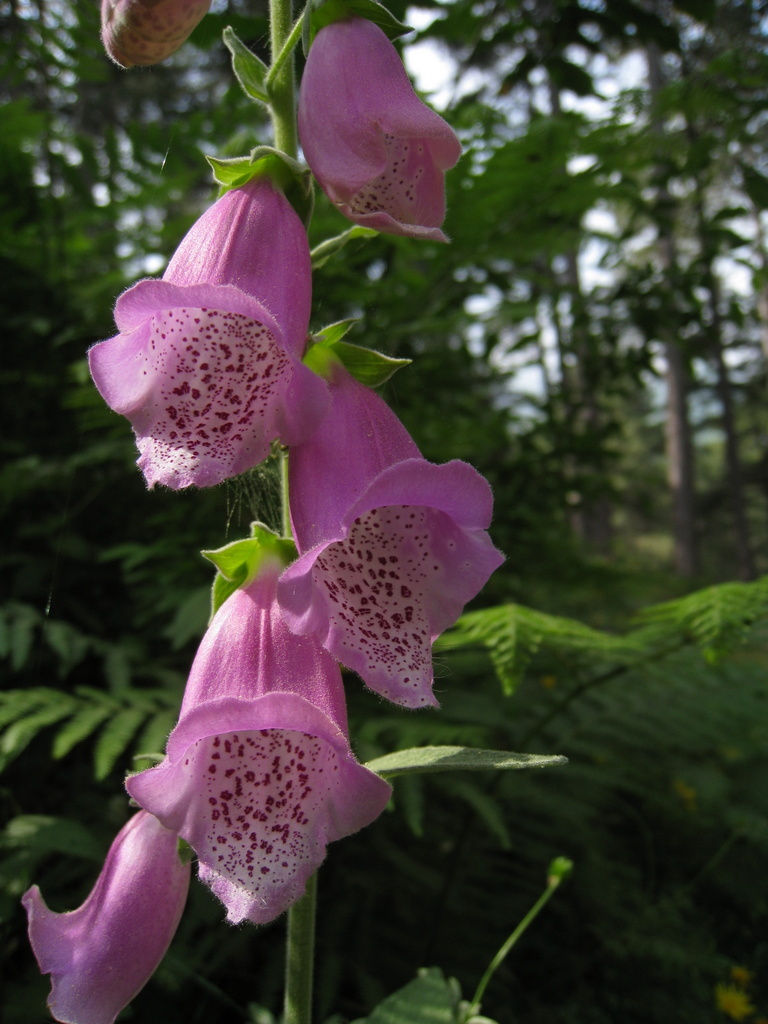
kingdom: Plantae
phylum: Tracheophyta
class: Magnoliopsida
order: Lamiales
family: Plantaginaceae
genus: Digitalis
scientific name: Digitalis purpurea
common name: Foxglove
